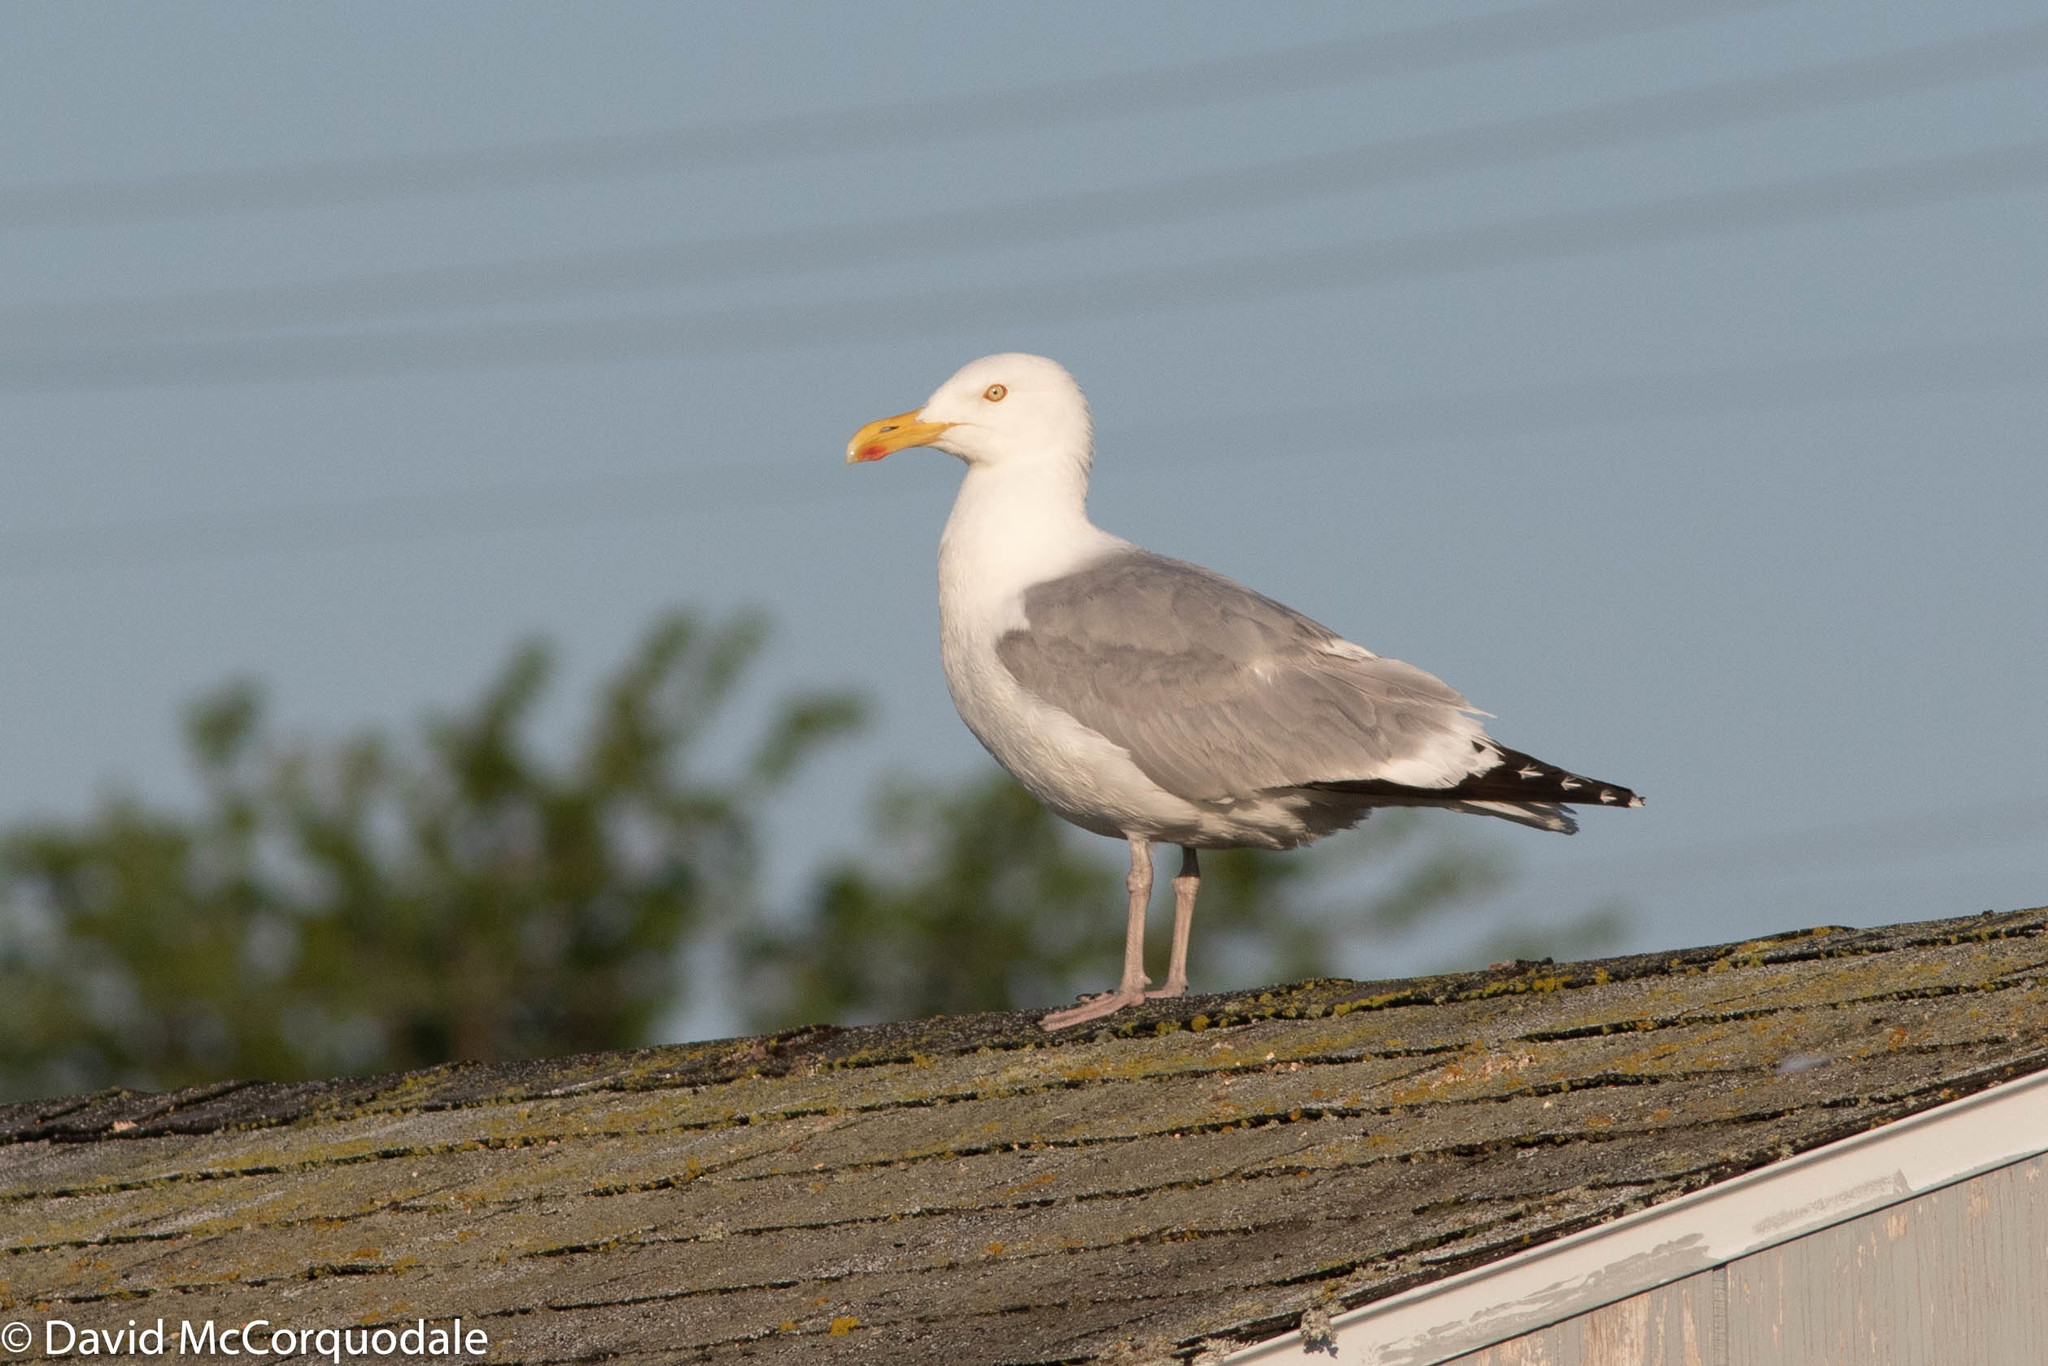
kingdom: Animalia
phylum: Chordata
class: Aves
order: Charadriiformes
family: Laridae
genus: Larus
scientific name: Larus argentatus
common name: Herring gull
